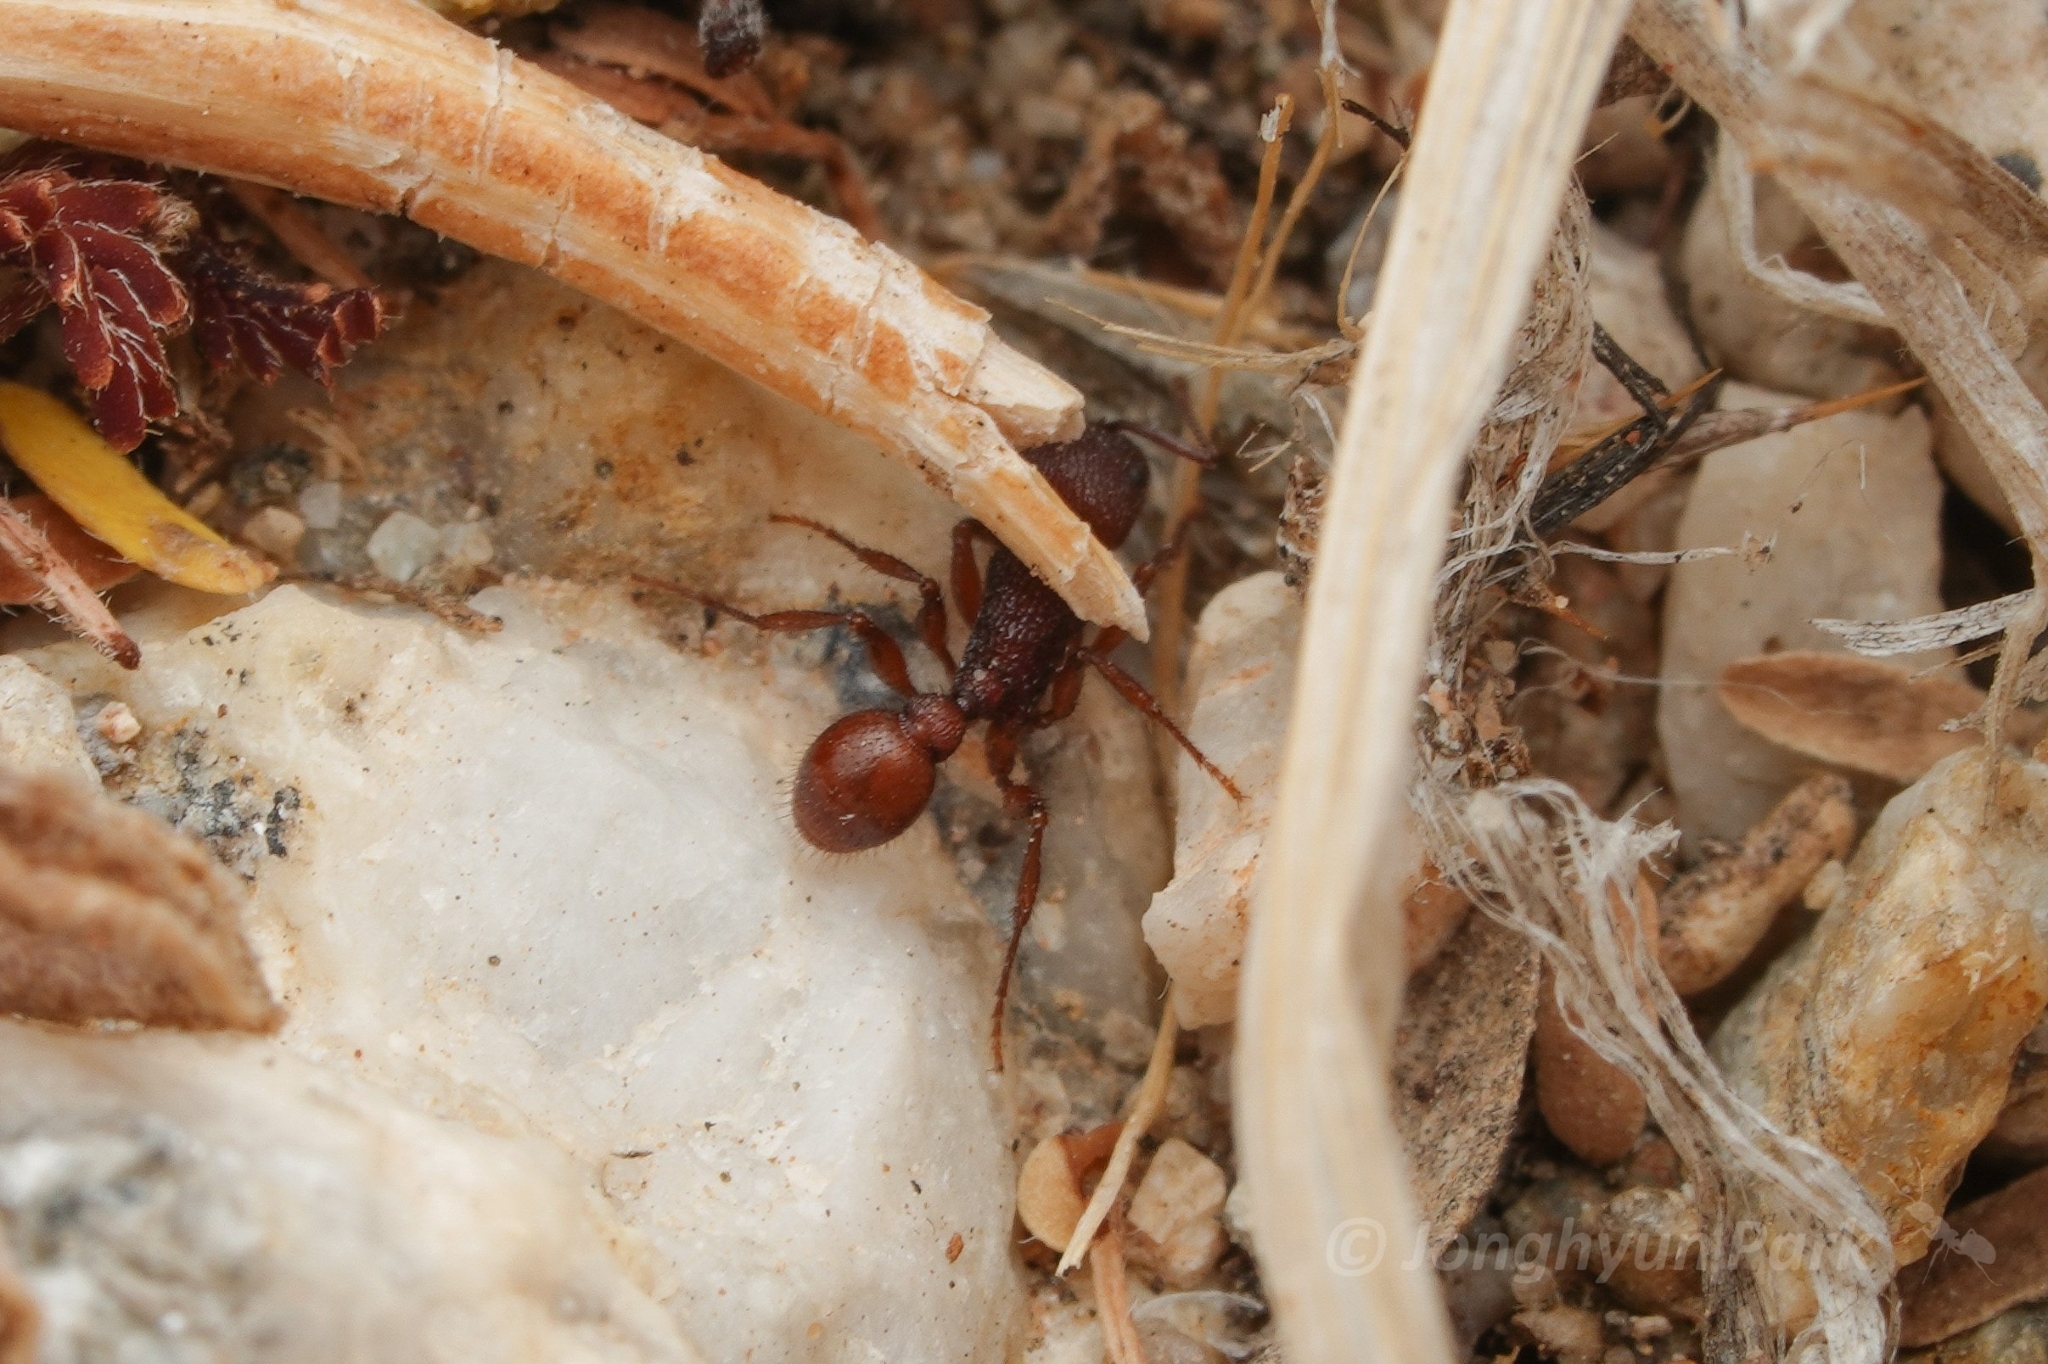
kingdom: Animalia
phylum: Arthropoda
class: Insecta
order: Hymenoptera
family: Formicidae
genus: Pogonomyrmex
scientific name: Pogonomyrmex imberbiculus
